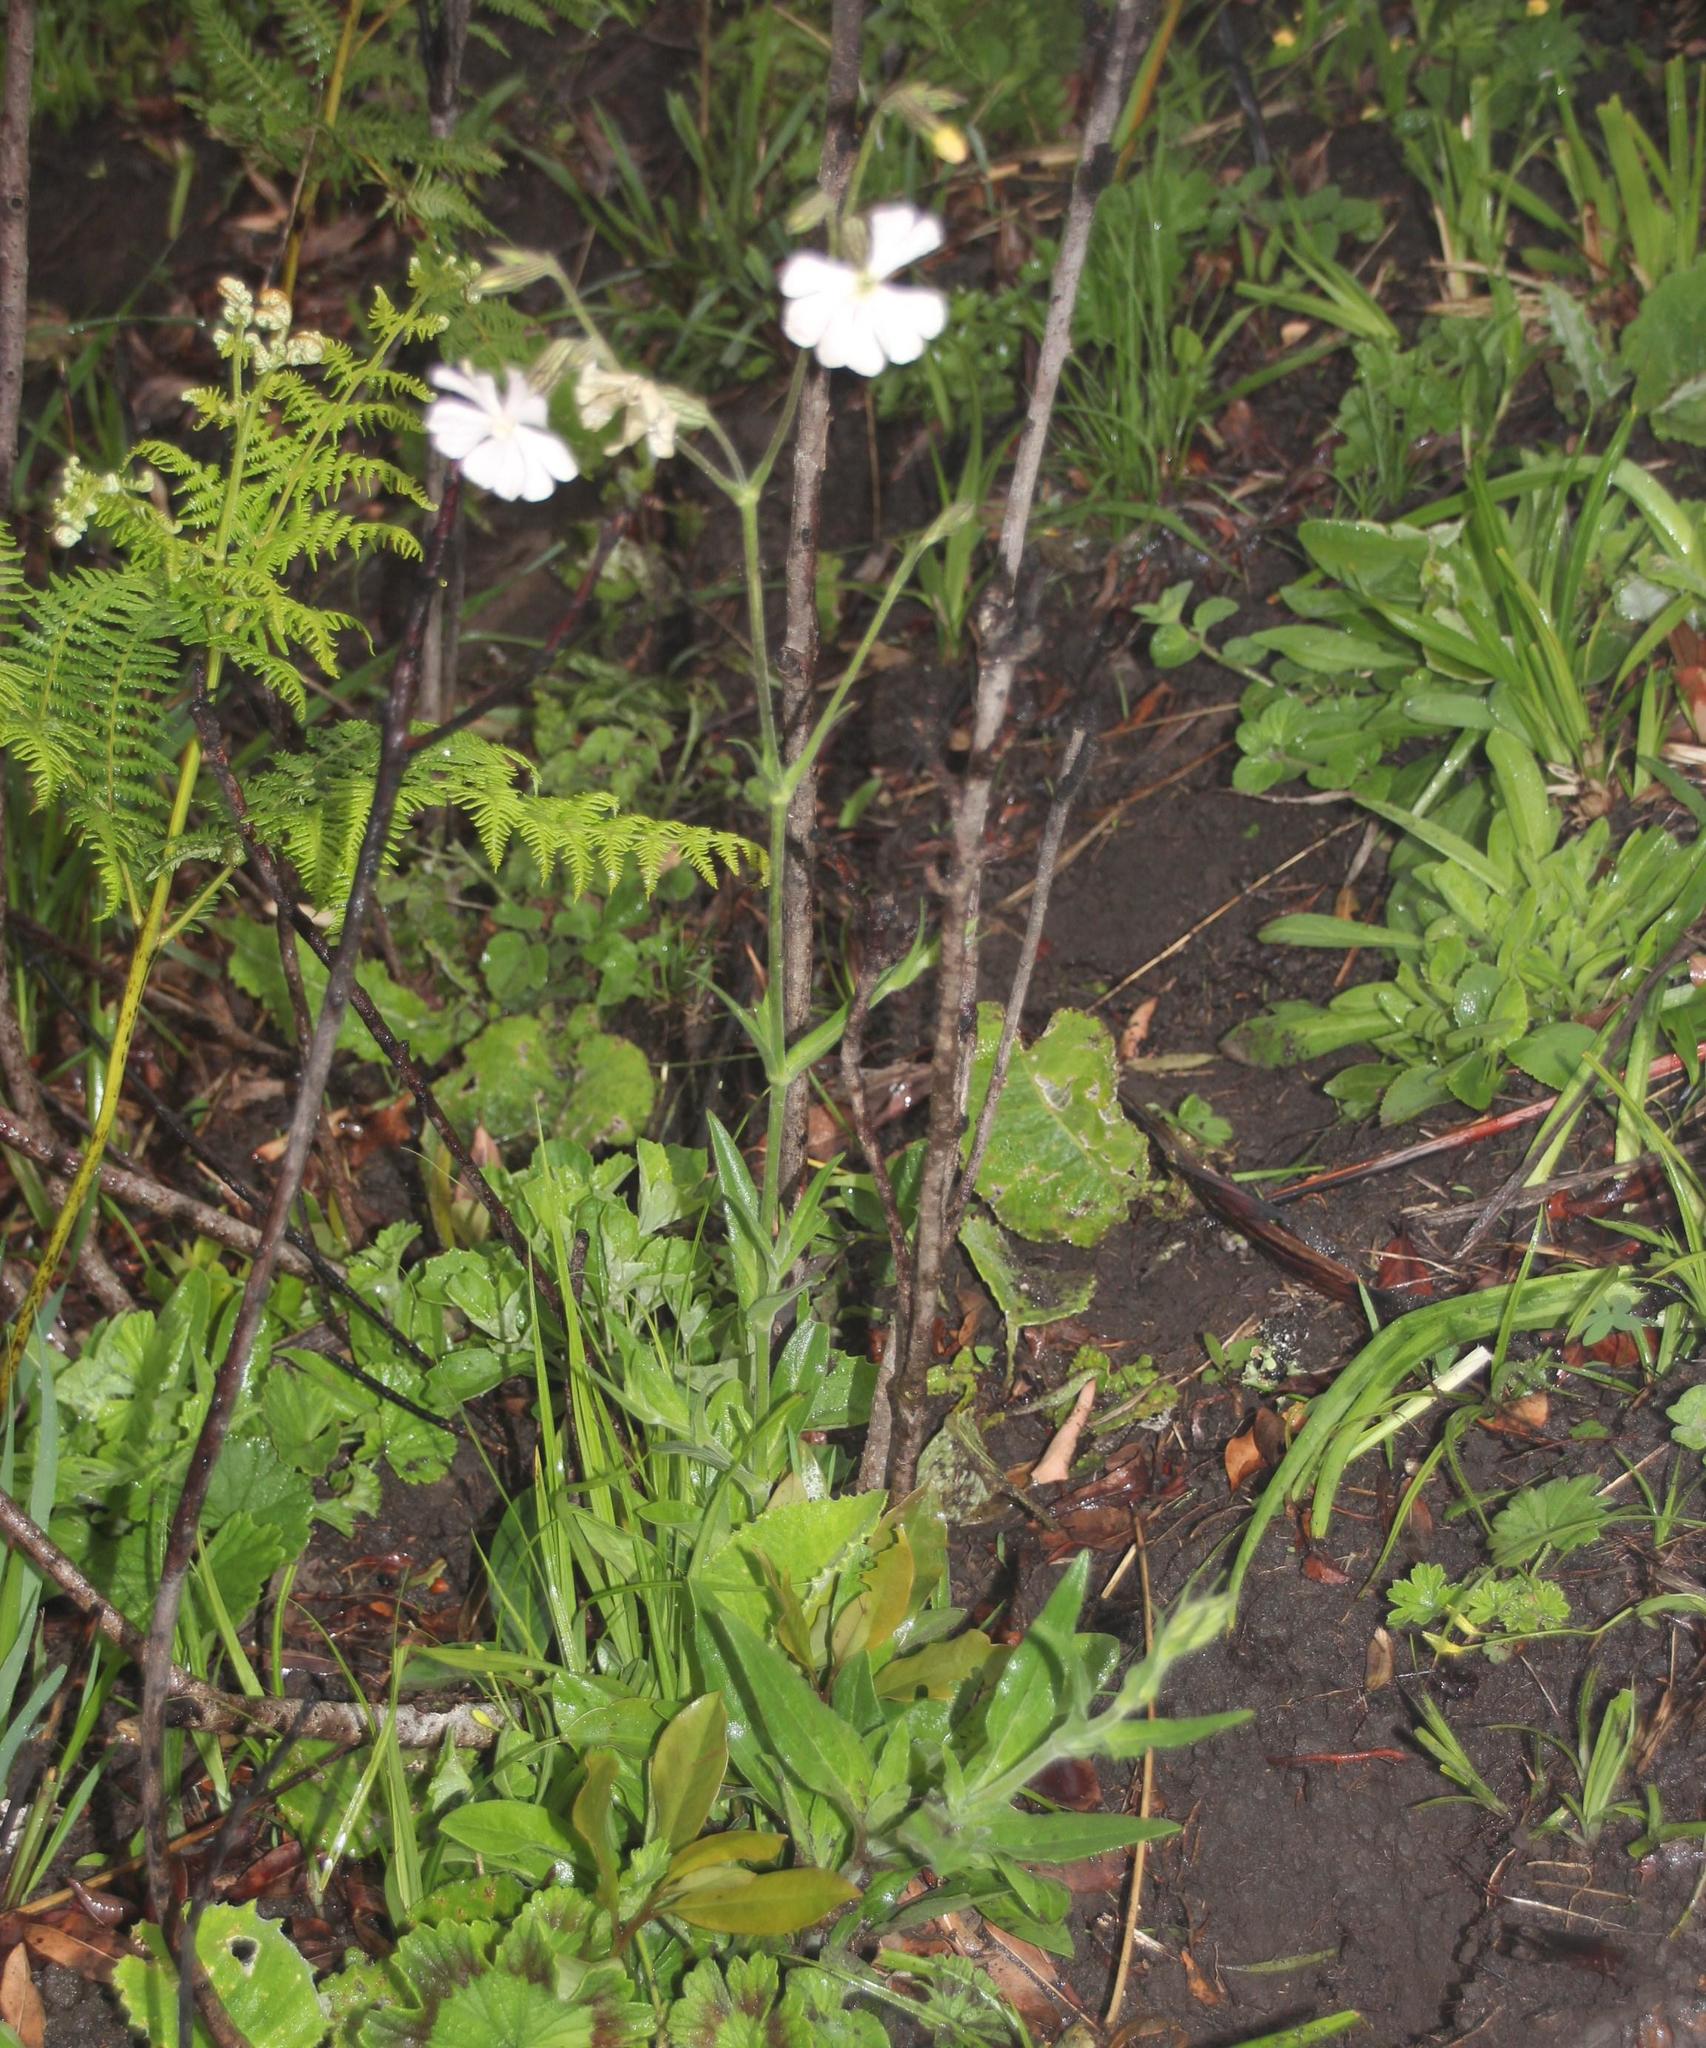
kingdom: Plantae
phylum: Tracheophyta
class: Magnoliopsida
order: Caryophyllales
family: Caryophyllaceae
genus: Silene
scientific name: Silene undulata
